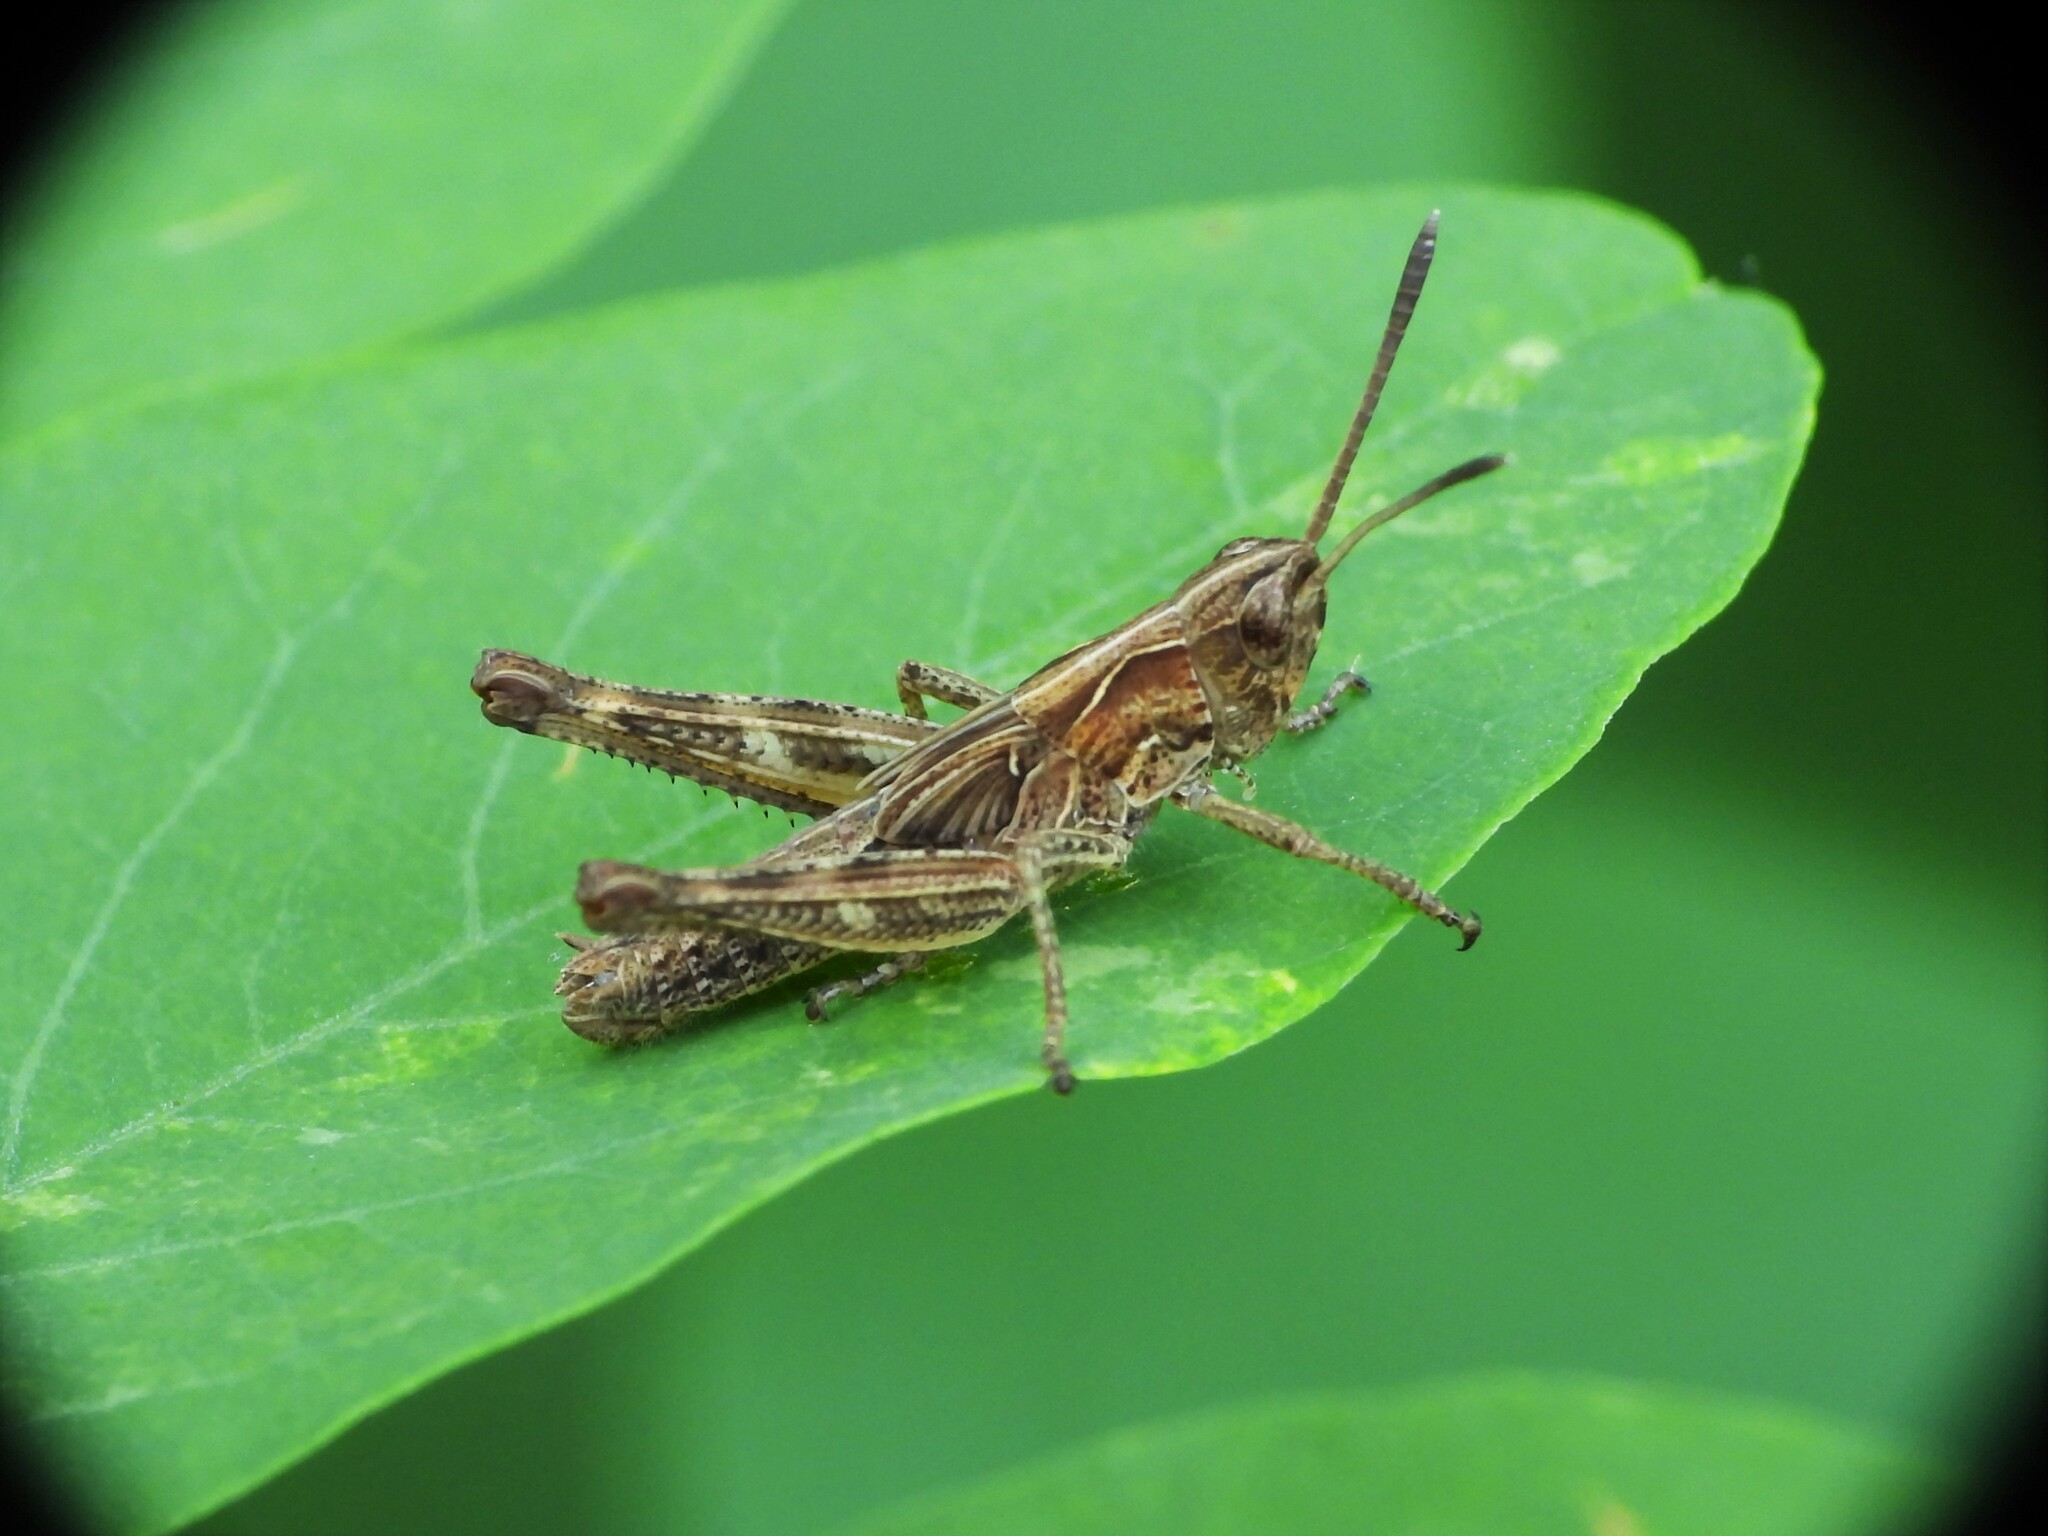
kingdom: Animalia
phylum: Arthropoda
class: Insecta
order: Orthoptera
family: Acrididae
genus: Gomphocerippus
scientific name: Gomphocerippus rufus
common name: Rufous grasshopper
